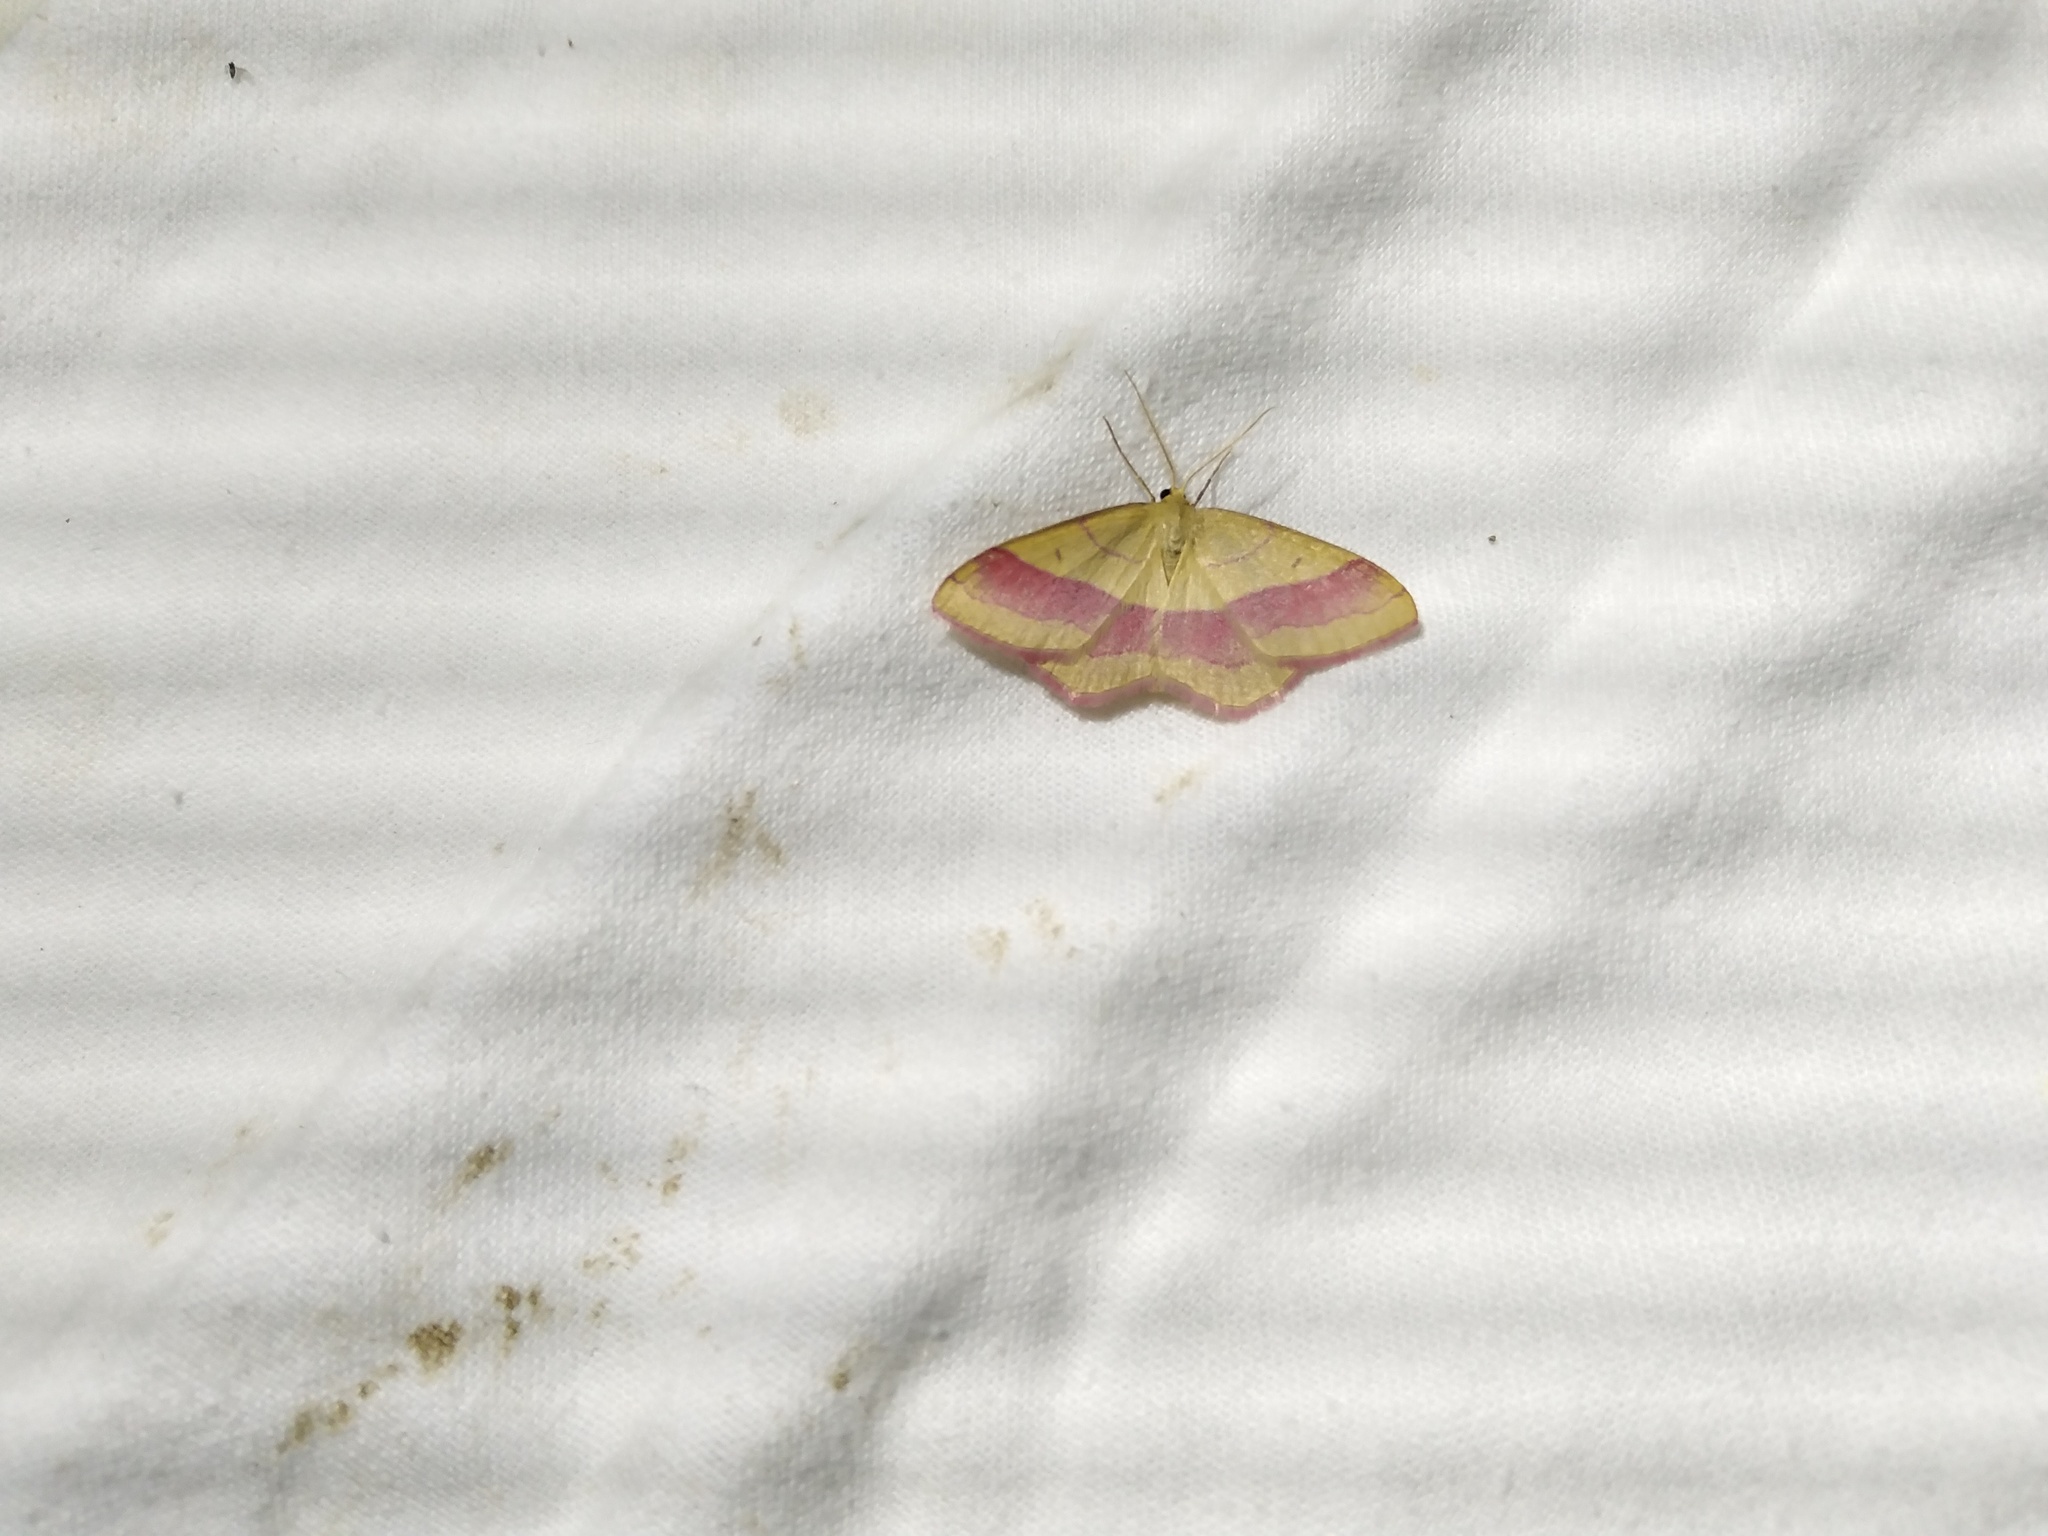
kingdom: Animalia
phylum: Arthropoda
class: Insecta
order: Lepidoptera
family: Geometridae
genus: Rhodostrophia
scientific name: Rhodostrophia vibicaria
